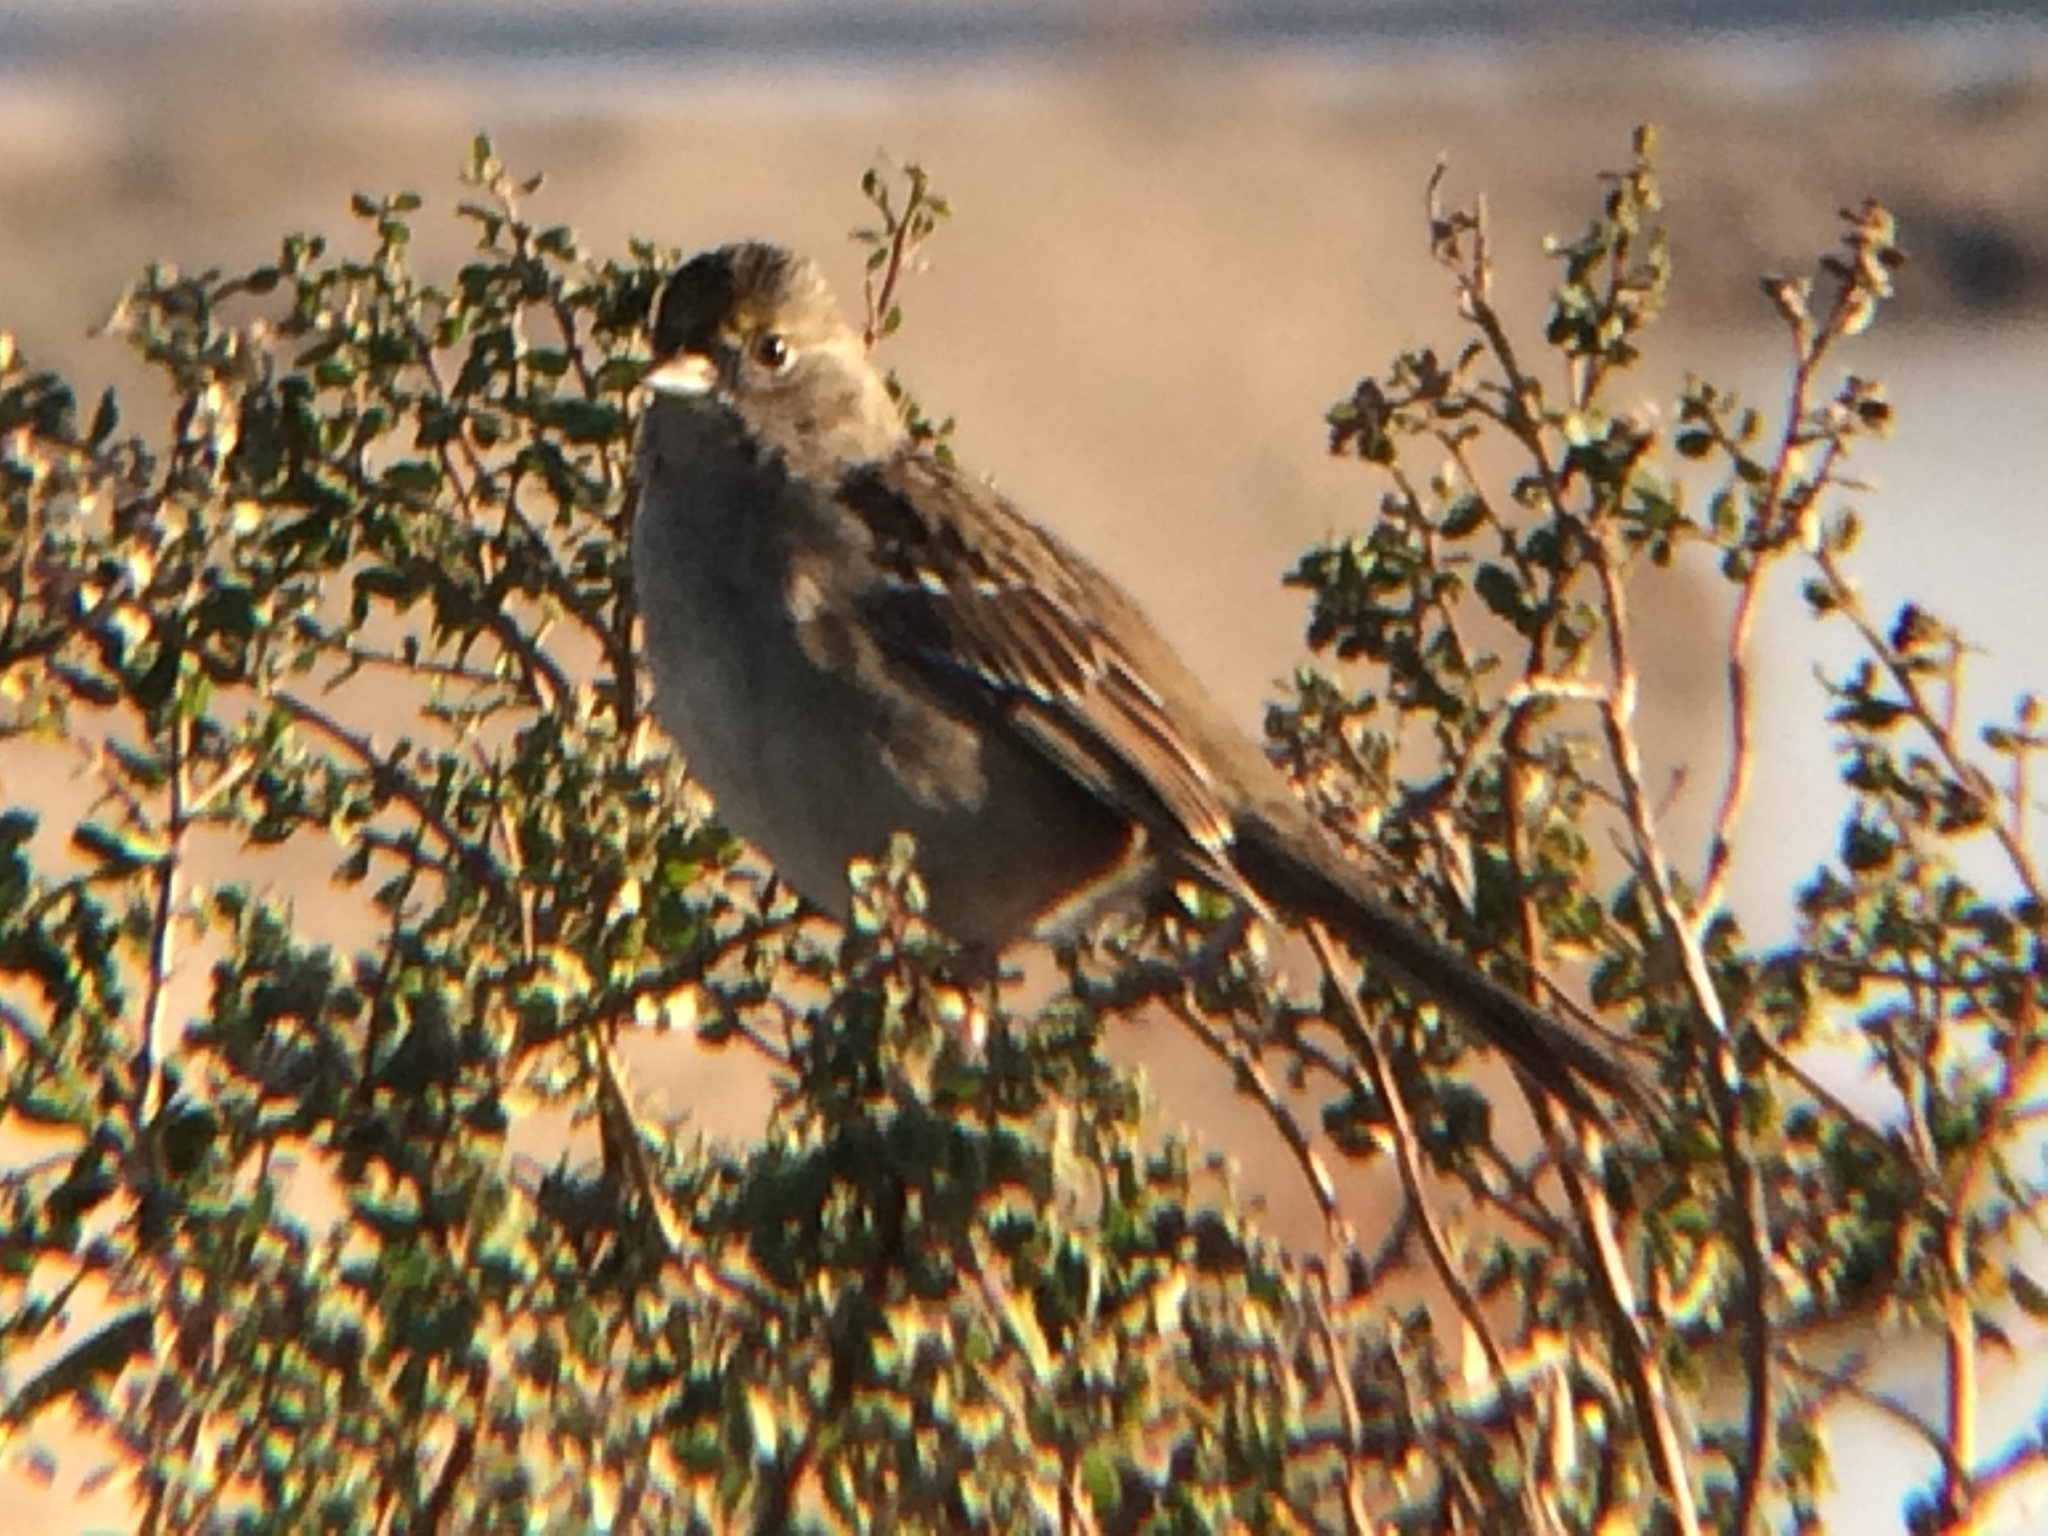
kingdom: Animalia
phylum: Chordata
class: Aves
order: Passeriformes
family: Passerellidae
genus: Zonotrichia
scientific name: Zonotrichia atricapilla
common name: Golden-crowned sparrow
